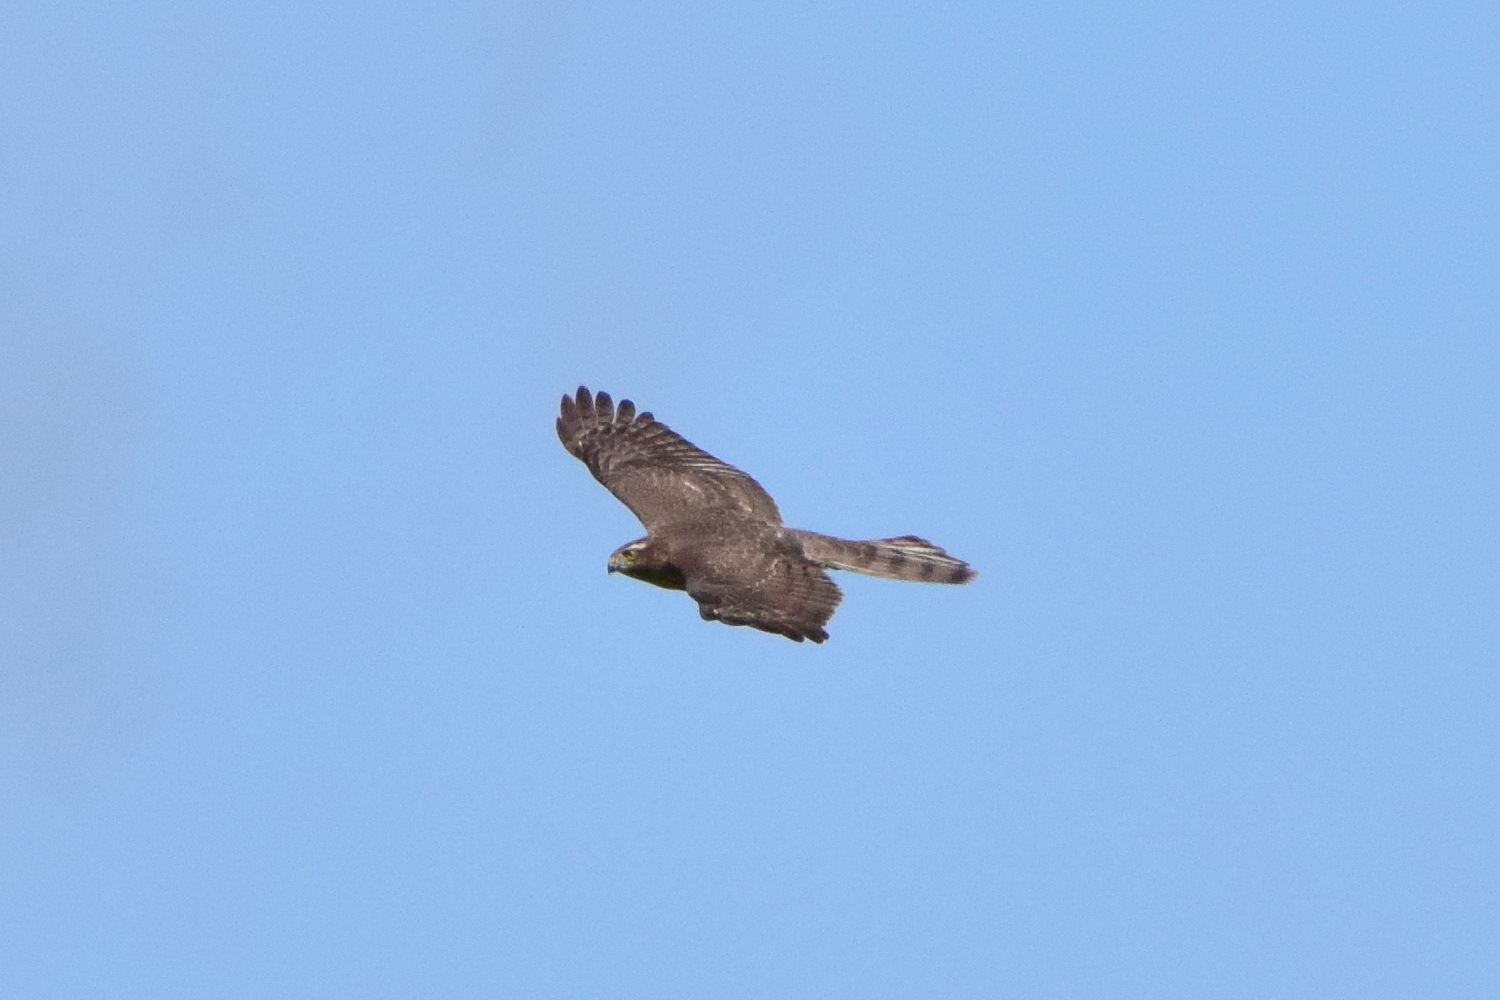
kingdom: Animalia
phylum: Chordata
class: Aves
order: Accipitriformes
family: Accipitridae
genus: Accipiter
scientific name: Accipiter nisus
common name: Eurasian sparrowhawk
